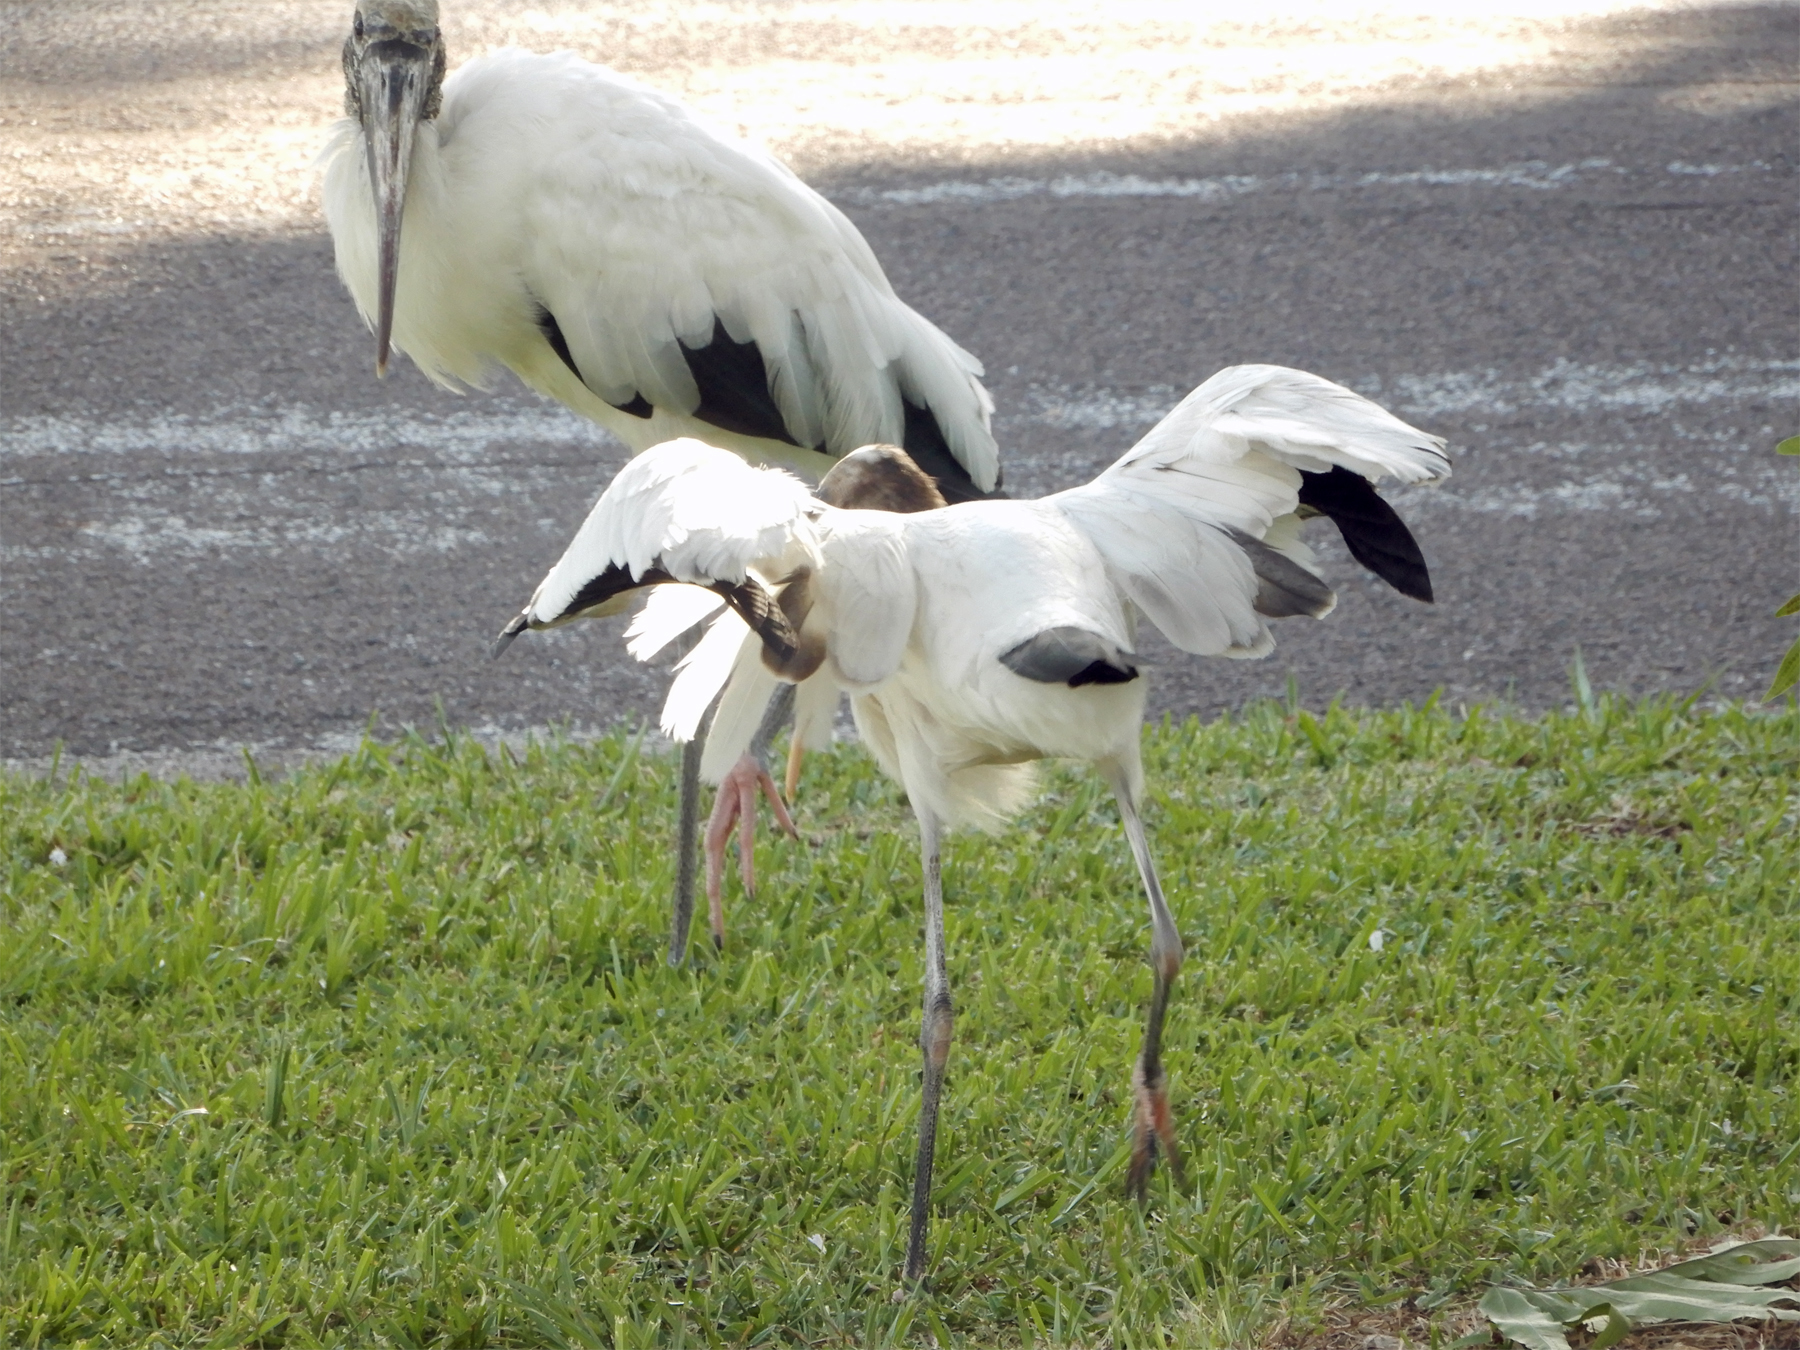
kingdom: Animalia
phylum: Chordata
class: Aves
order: Ciconiiformes
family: Ciconiidae
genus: Mycteria
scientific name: Mycteria americana
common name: Wood stork
